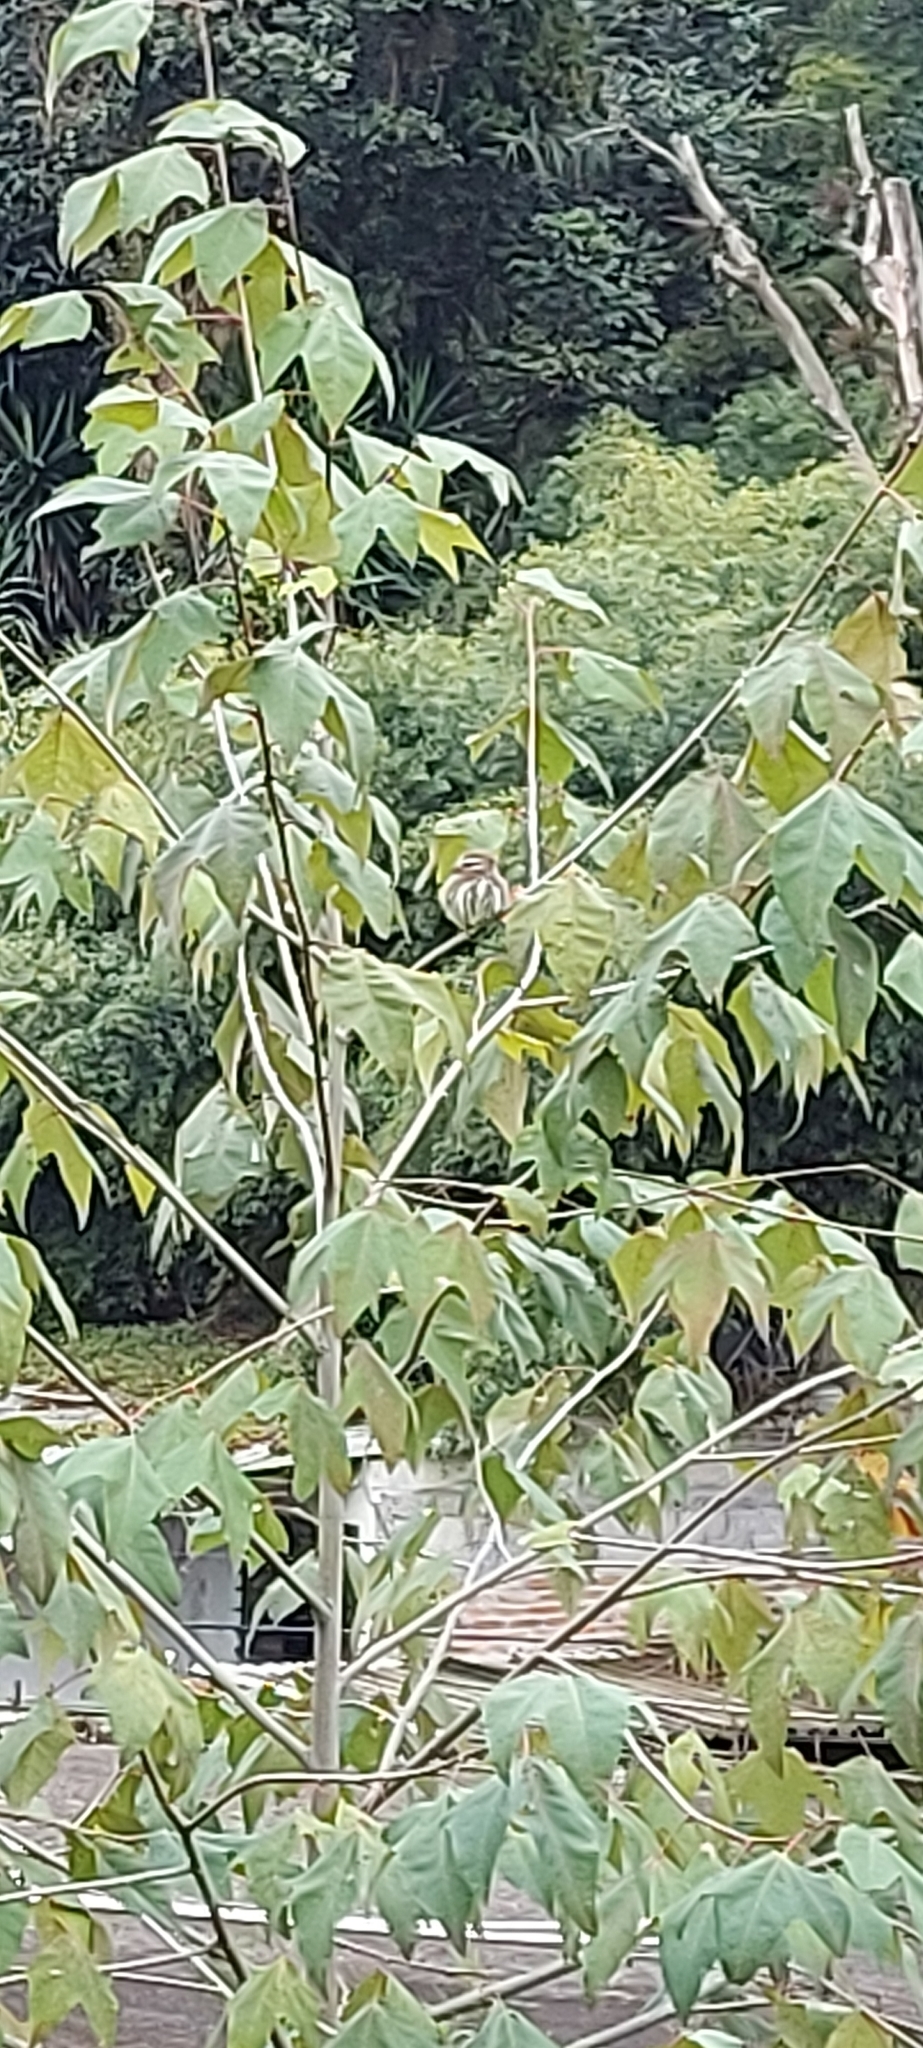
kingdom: Animalia
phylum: Chordata
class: Aves
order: Strigiformes
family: Strigidae
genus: Glaucidium
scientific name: Glaucidium brasilianum
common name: Ferruginous pygmy-owl
